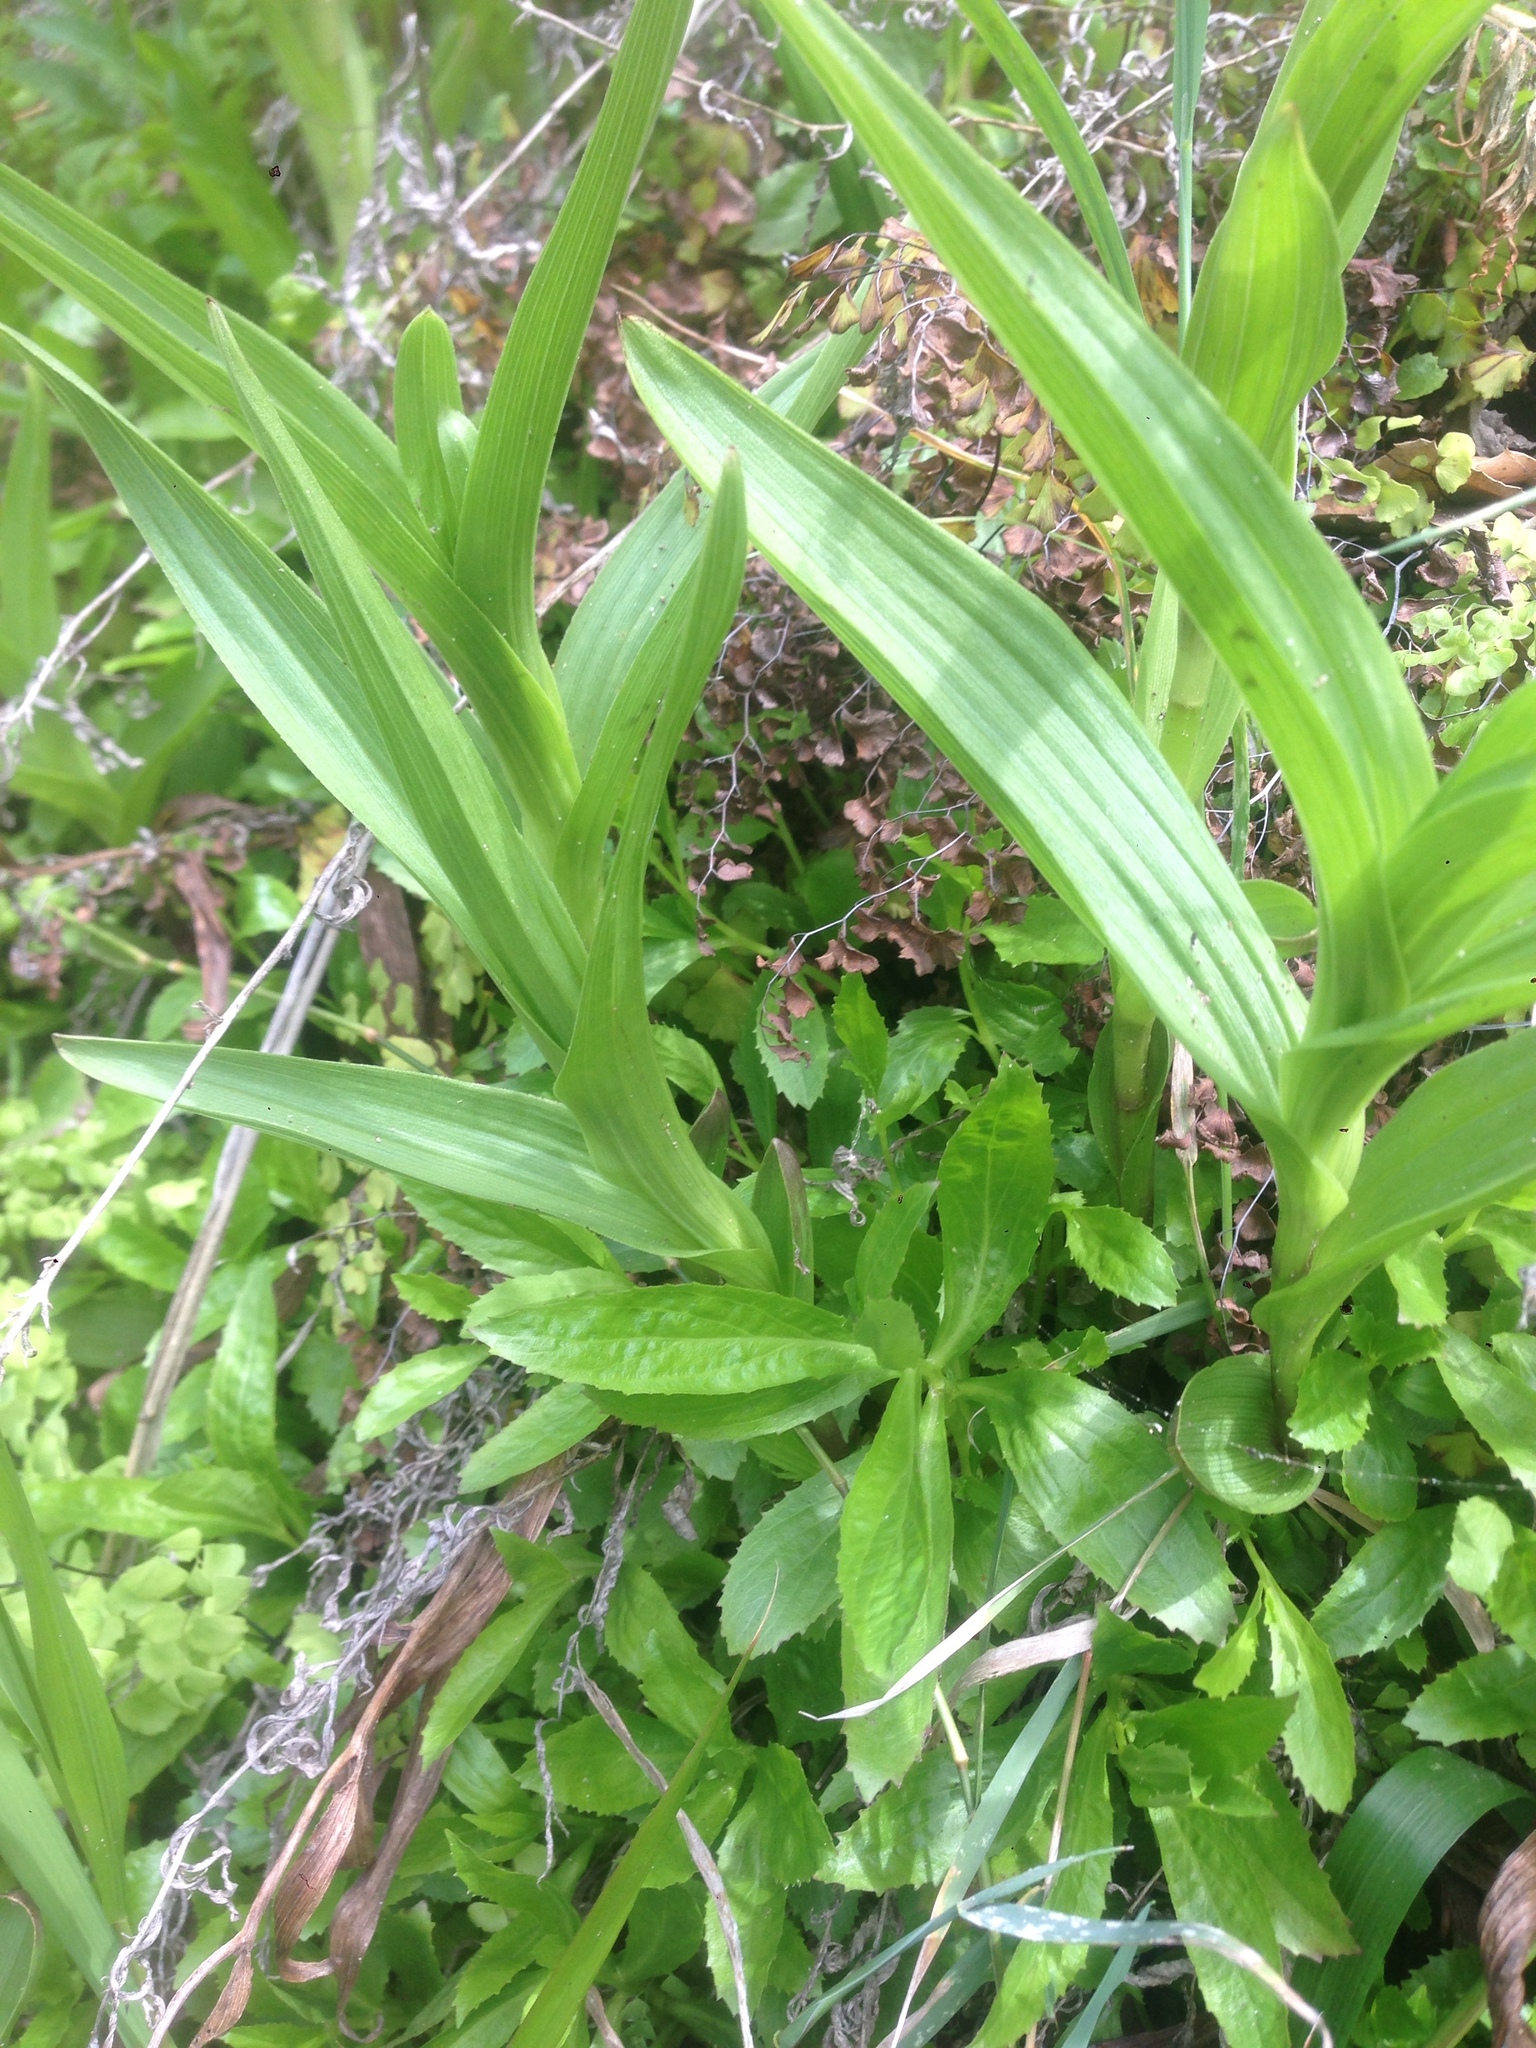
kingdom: Plantae
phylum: Tracheophyta
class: Liliopsida
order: Asparagales
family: Orchidaceae
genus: Epipactis
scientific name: Epipactis gigantea
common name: Chatterbox
